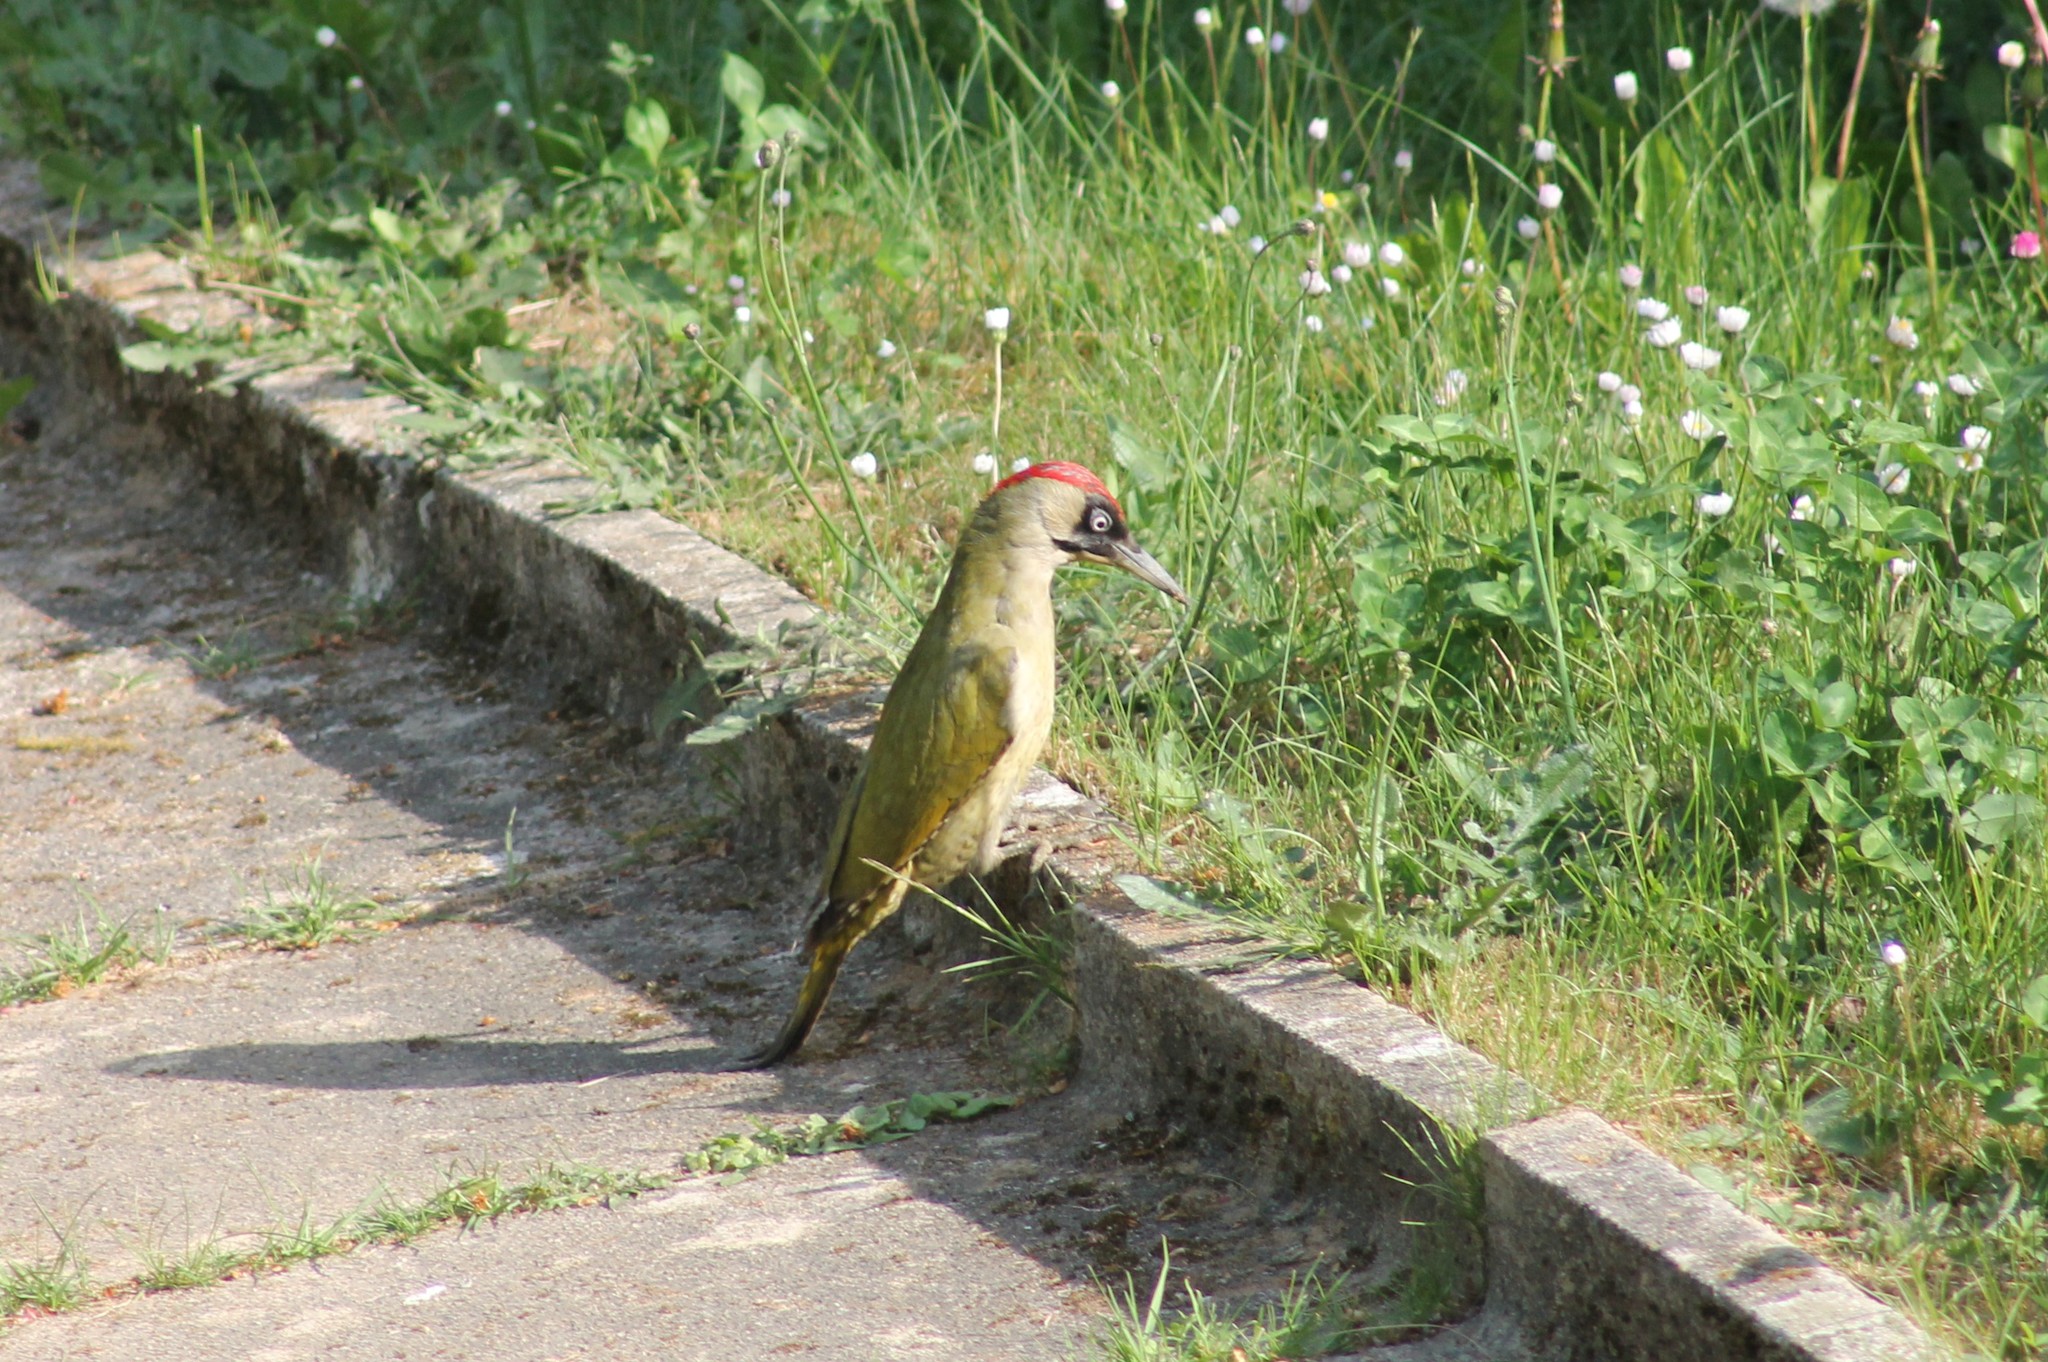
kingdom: Animalia
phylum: Chordata
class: Aves
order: Piciformes
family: Picidae
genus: Picus
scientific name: Picus viridis
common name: European green woodpecker
